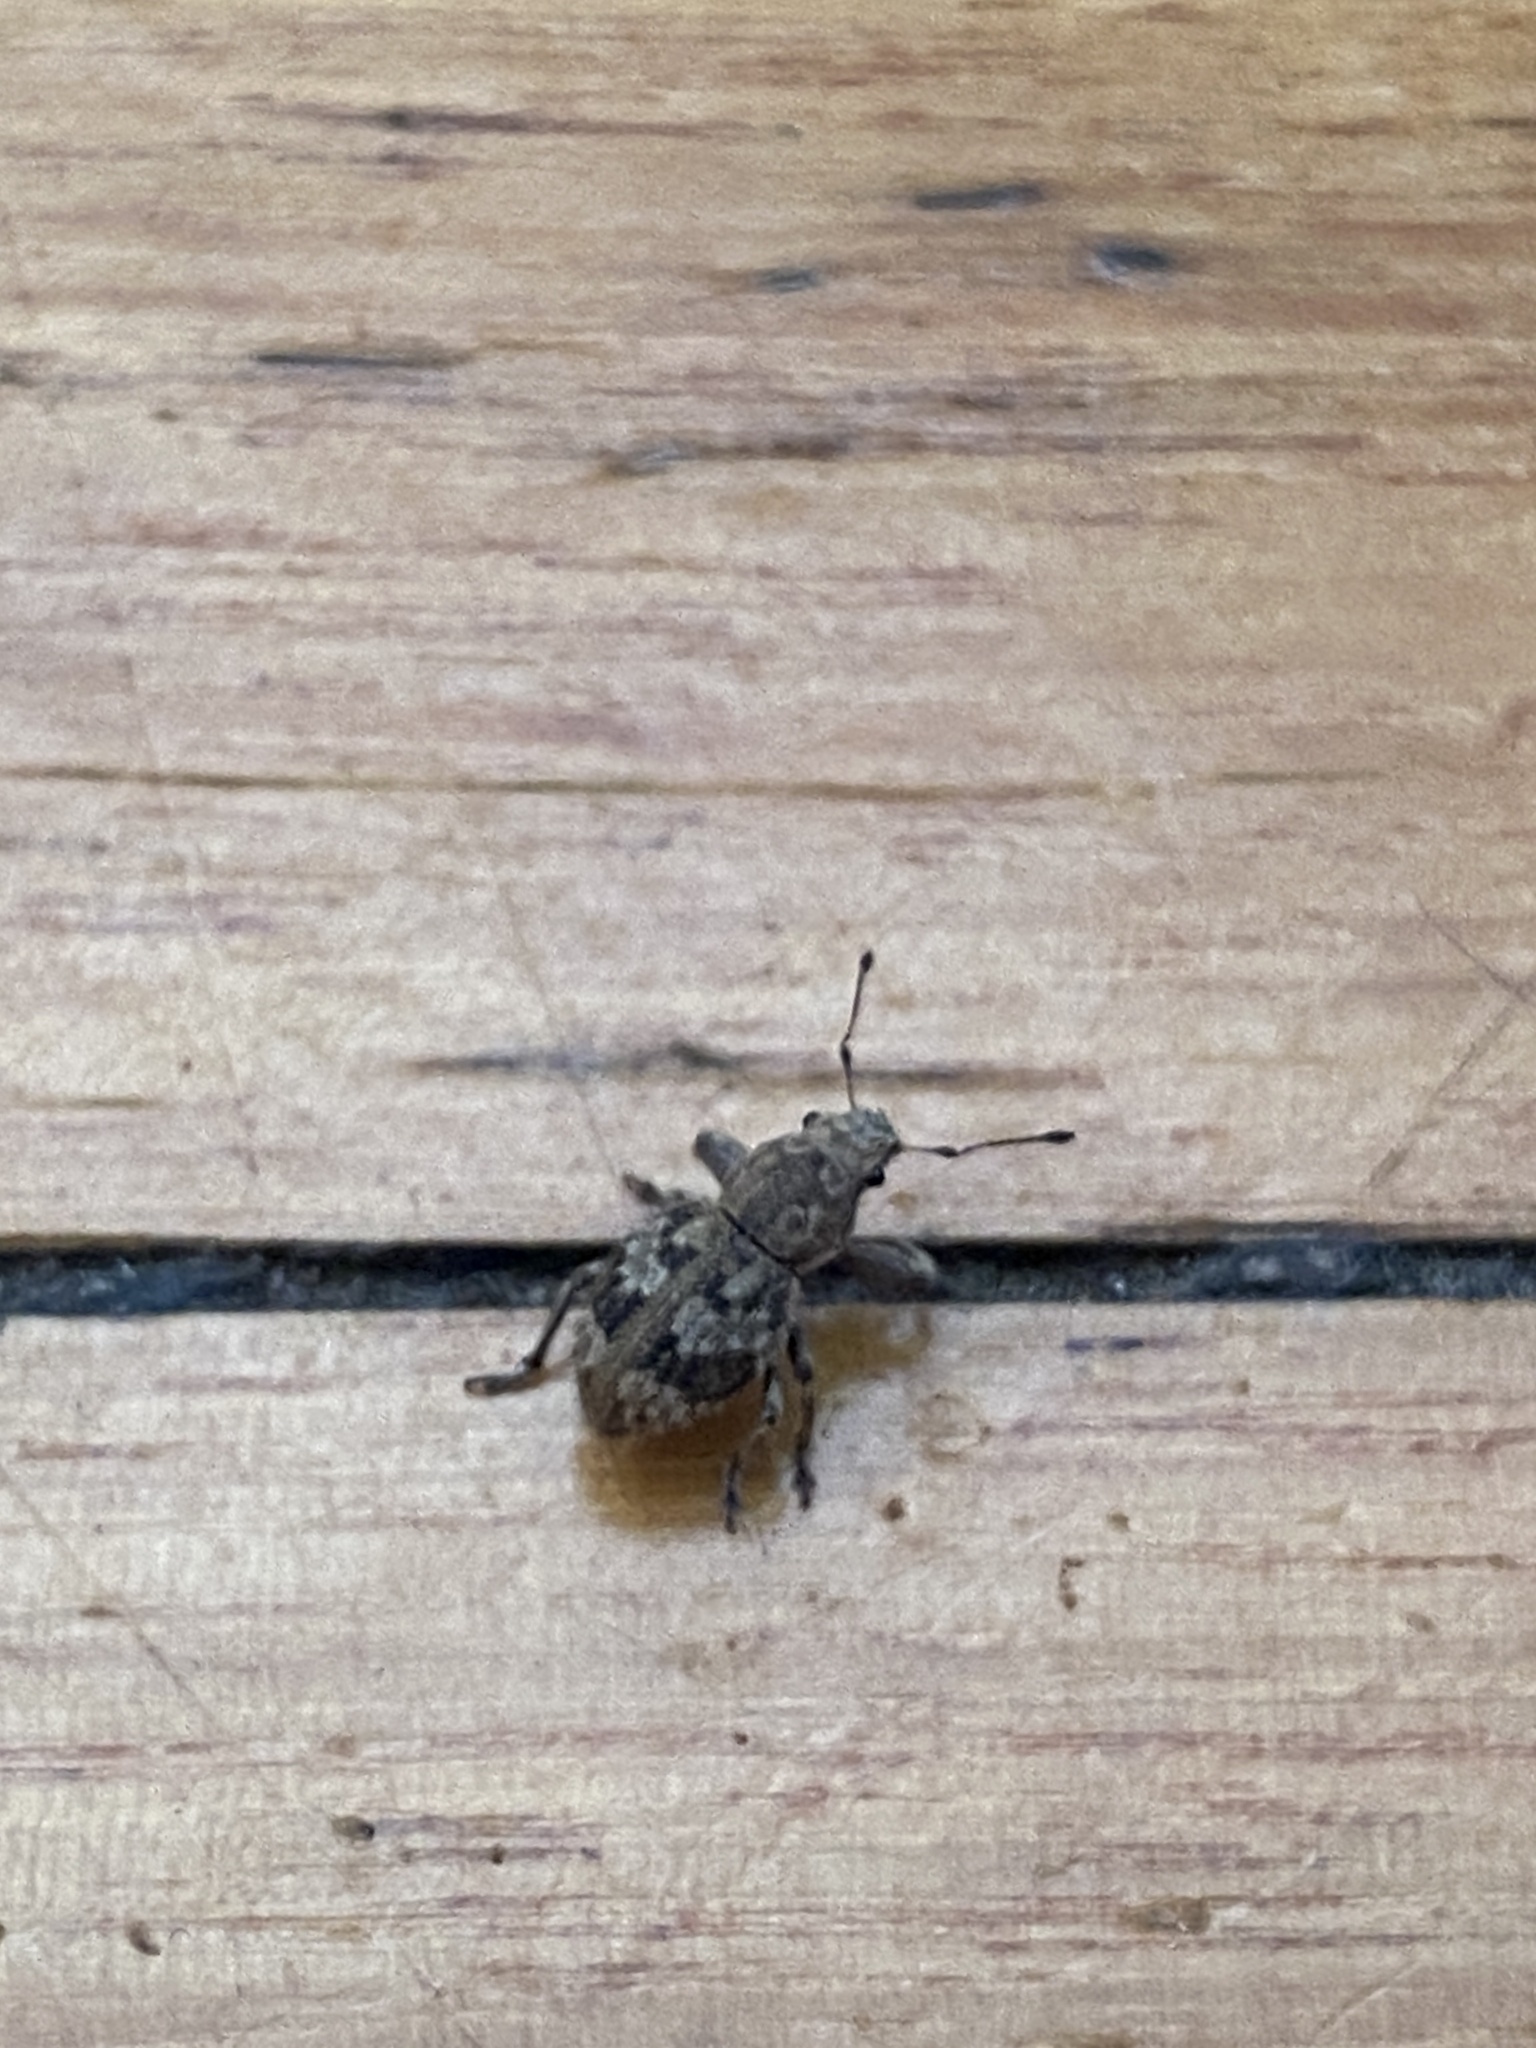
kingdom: Animalia
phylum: Arthropoda
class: Insecta
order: Coleoptera
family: Curculionidae
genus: Pantomorus
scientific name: Pantomorus
